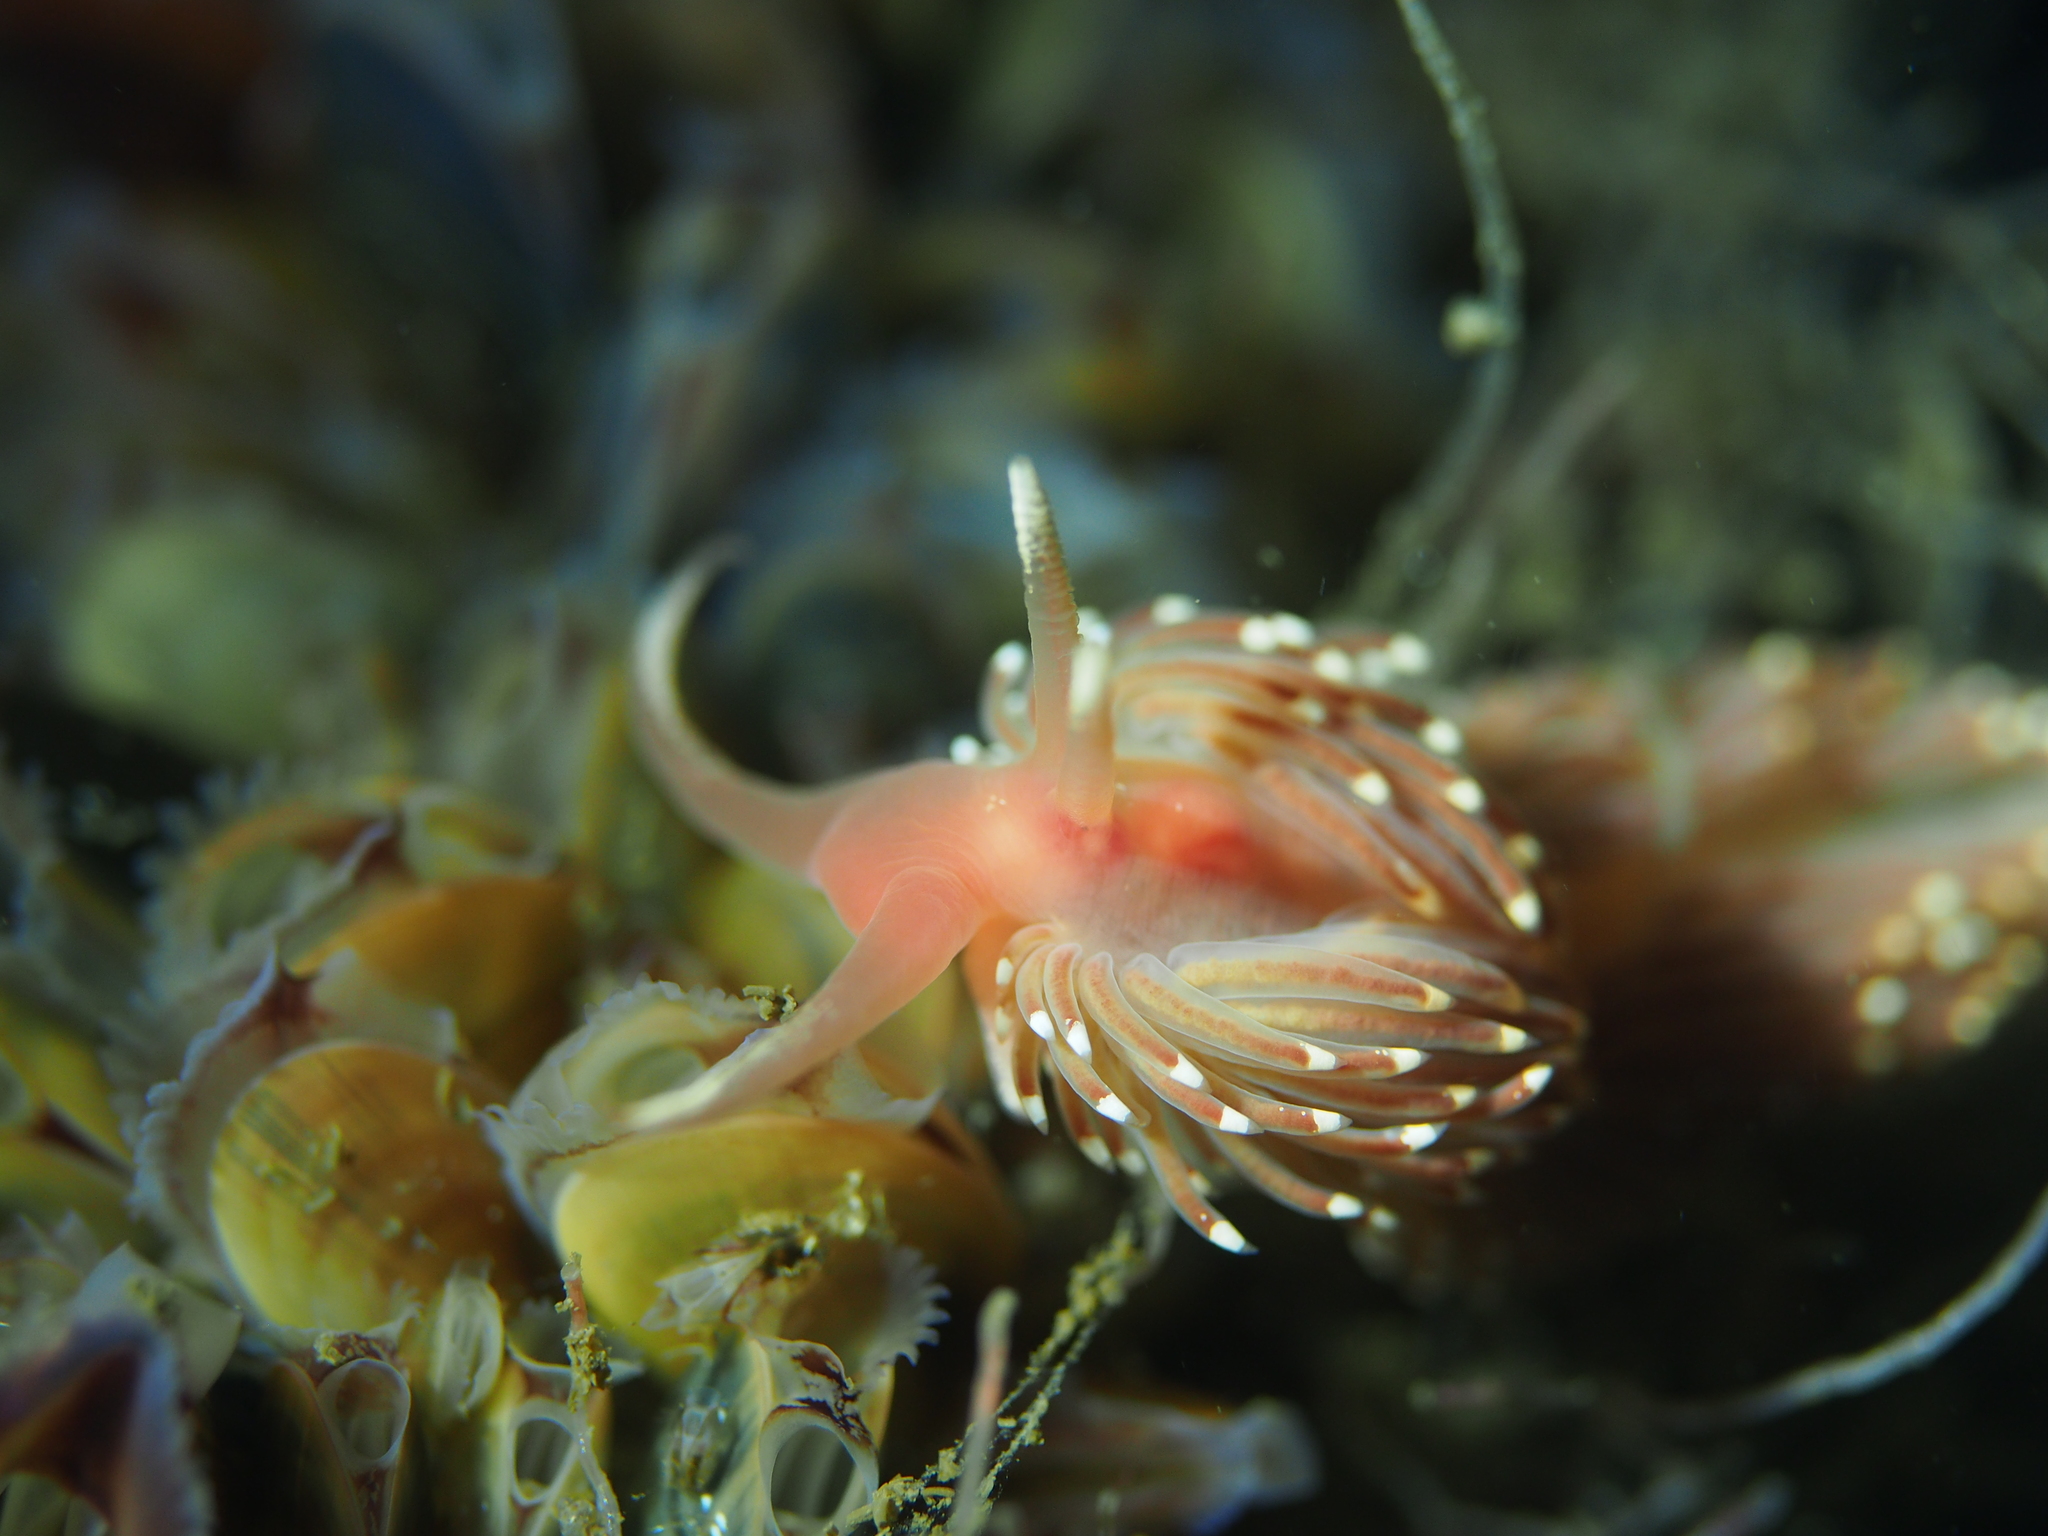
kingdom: Animalia
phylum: Mollusca
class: Gastropoda
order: Nudibranchia
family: Facelinidae
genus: Facelina
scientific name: Facelina bostoniensis
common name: Boston facelina
